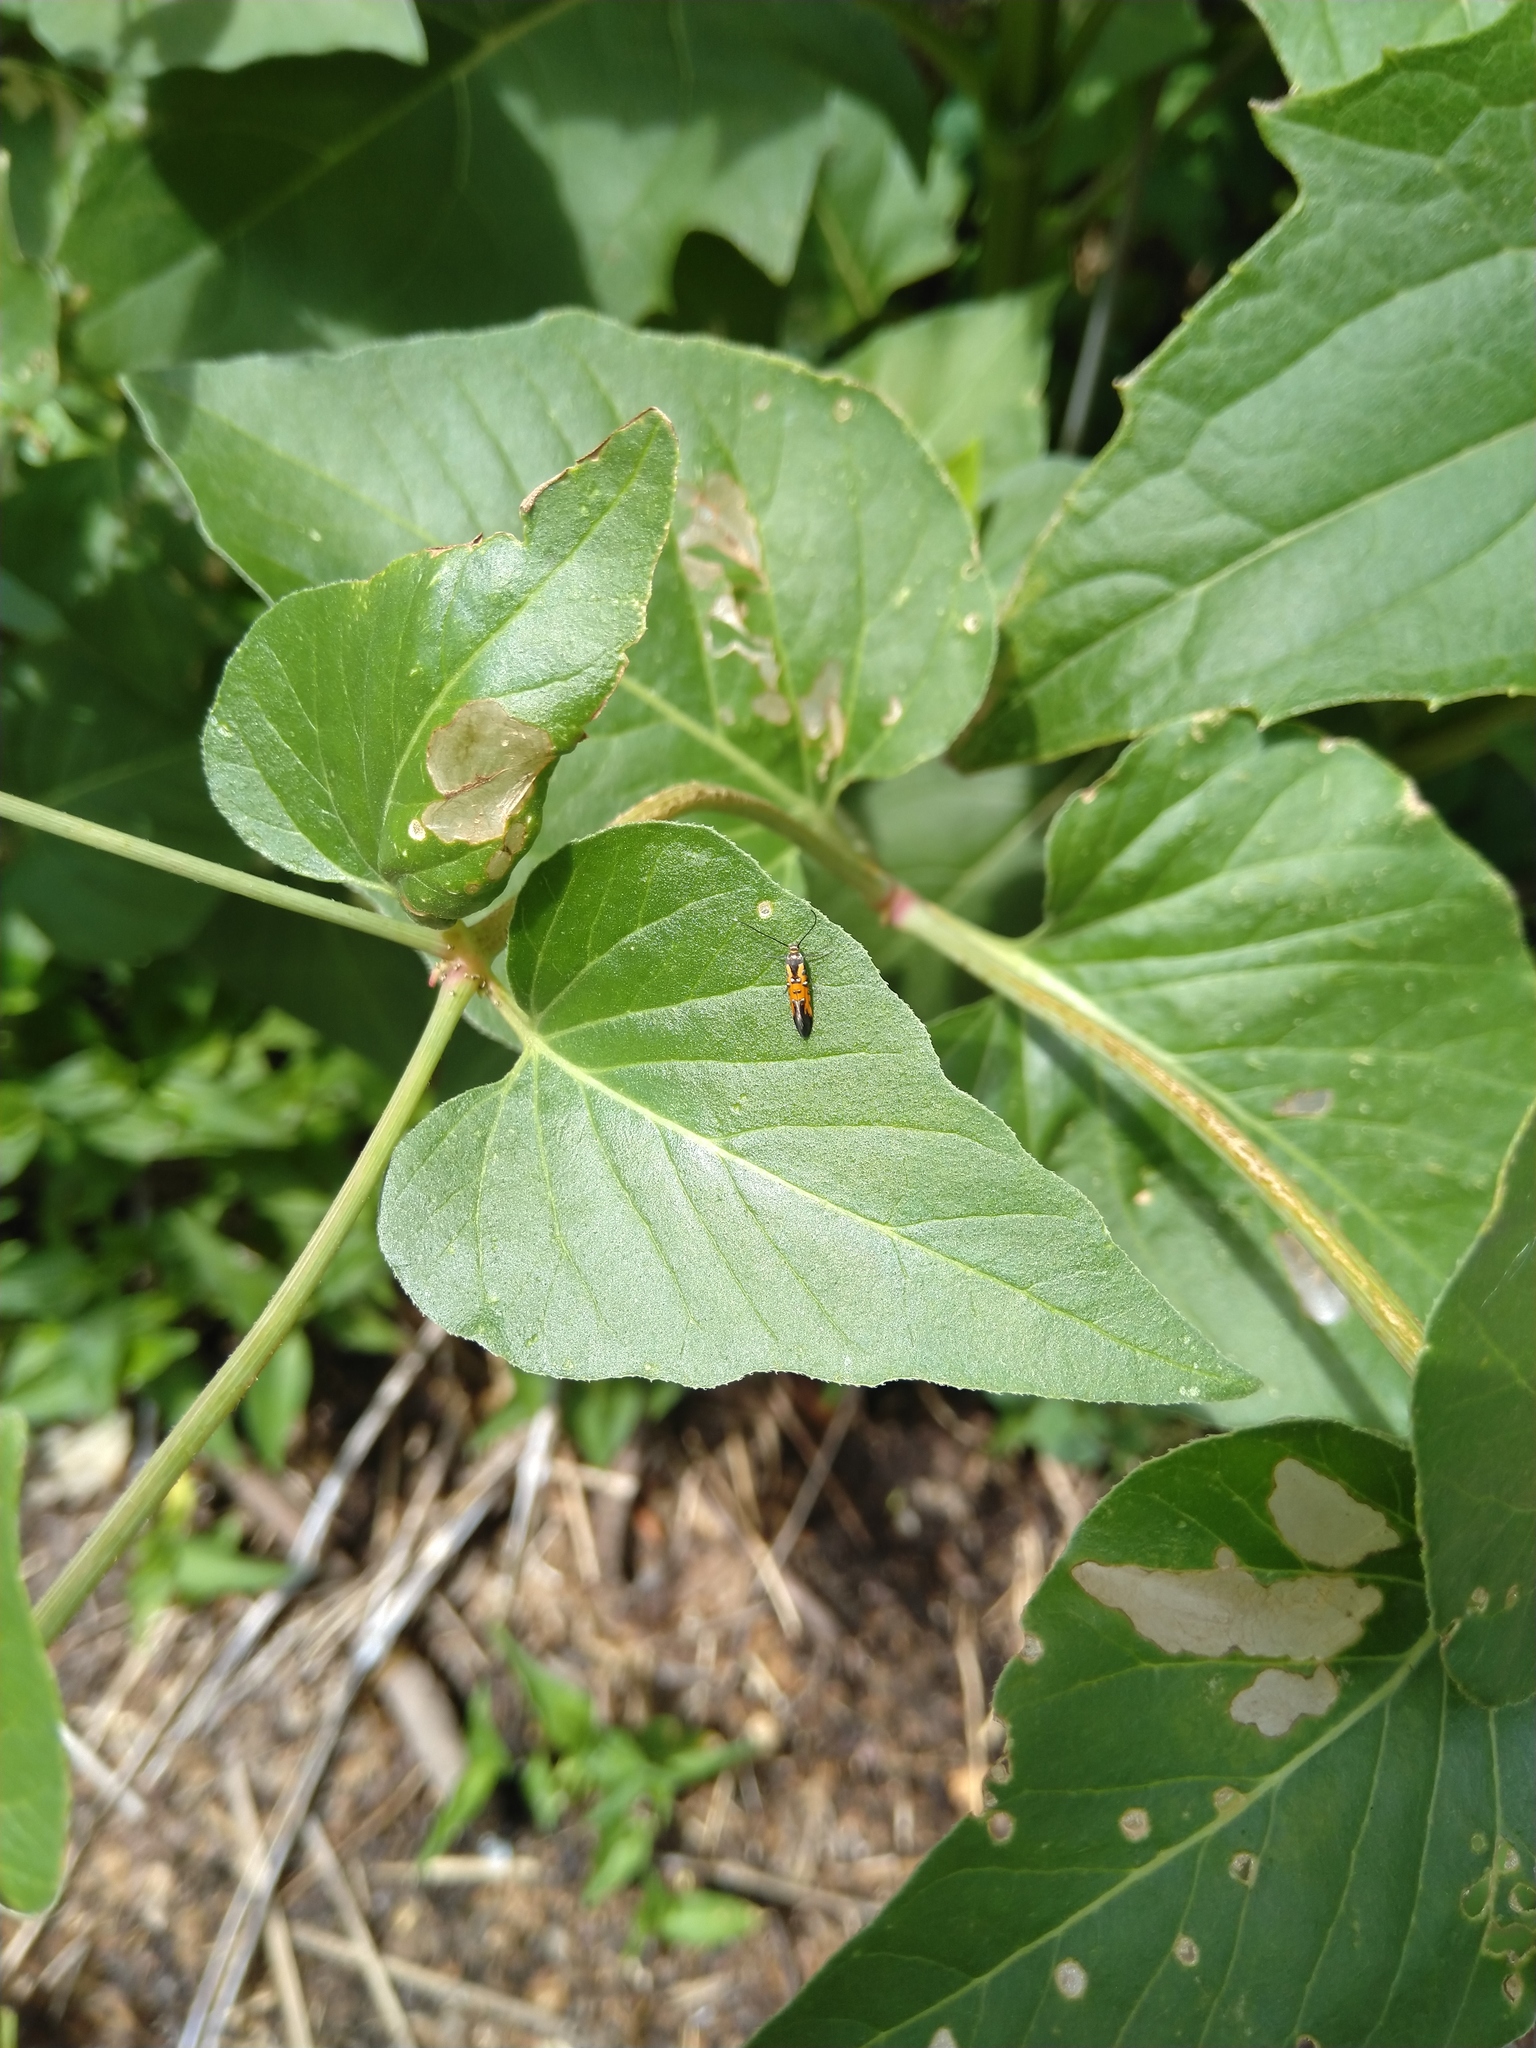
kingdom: Animalia
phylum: Arthropoda
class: Insecta
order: Lepidoptera
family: Heliodinidae
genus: Neoheliodines
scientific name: Neoheliodines nyctaginella
